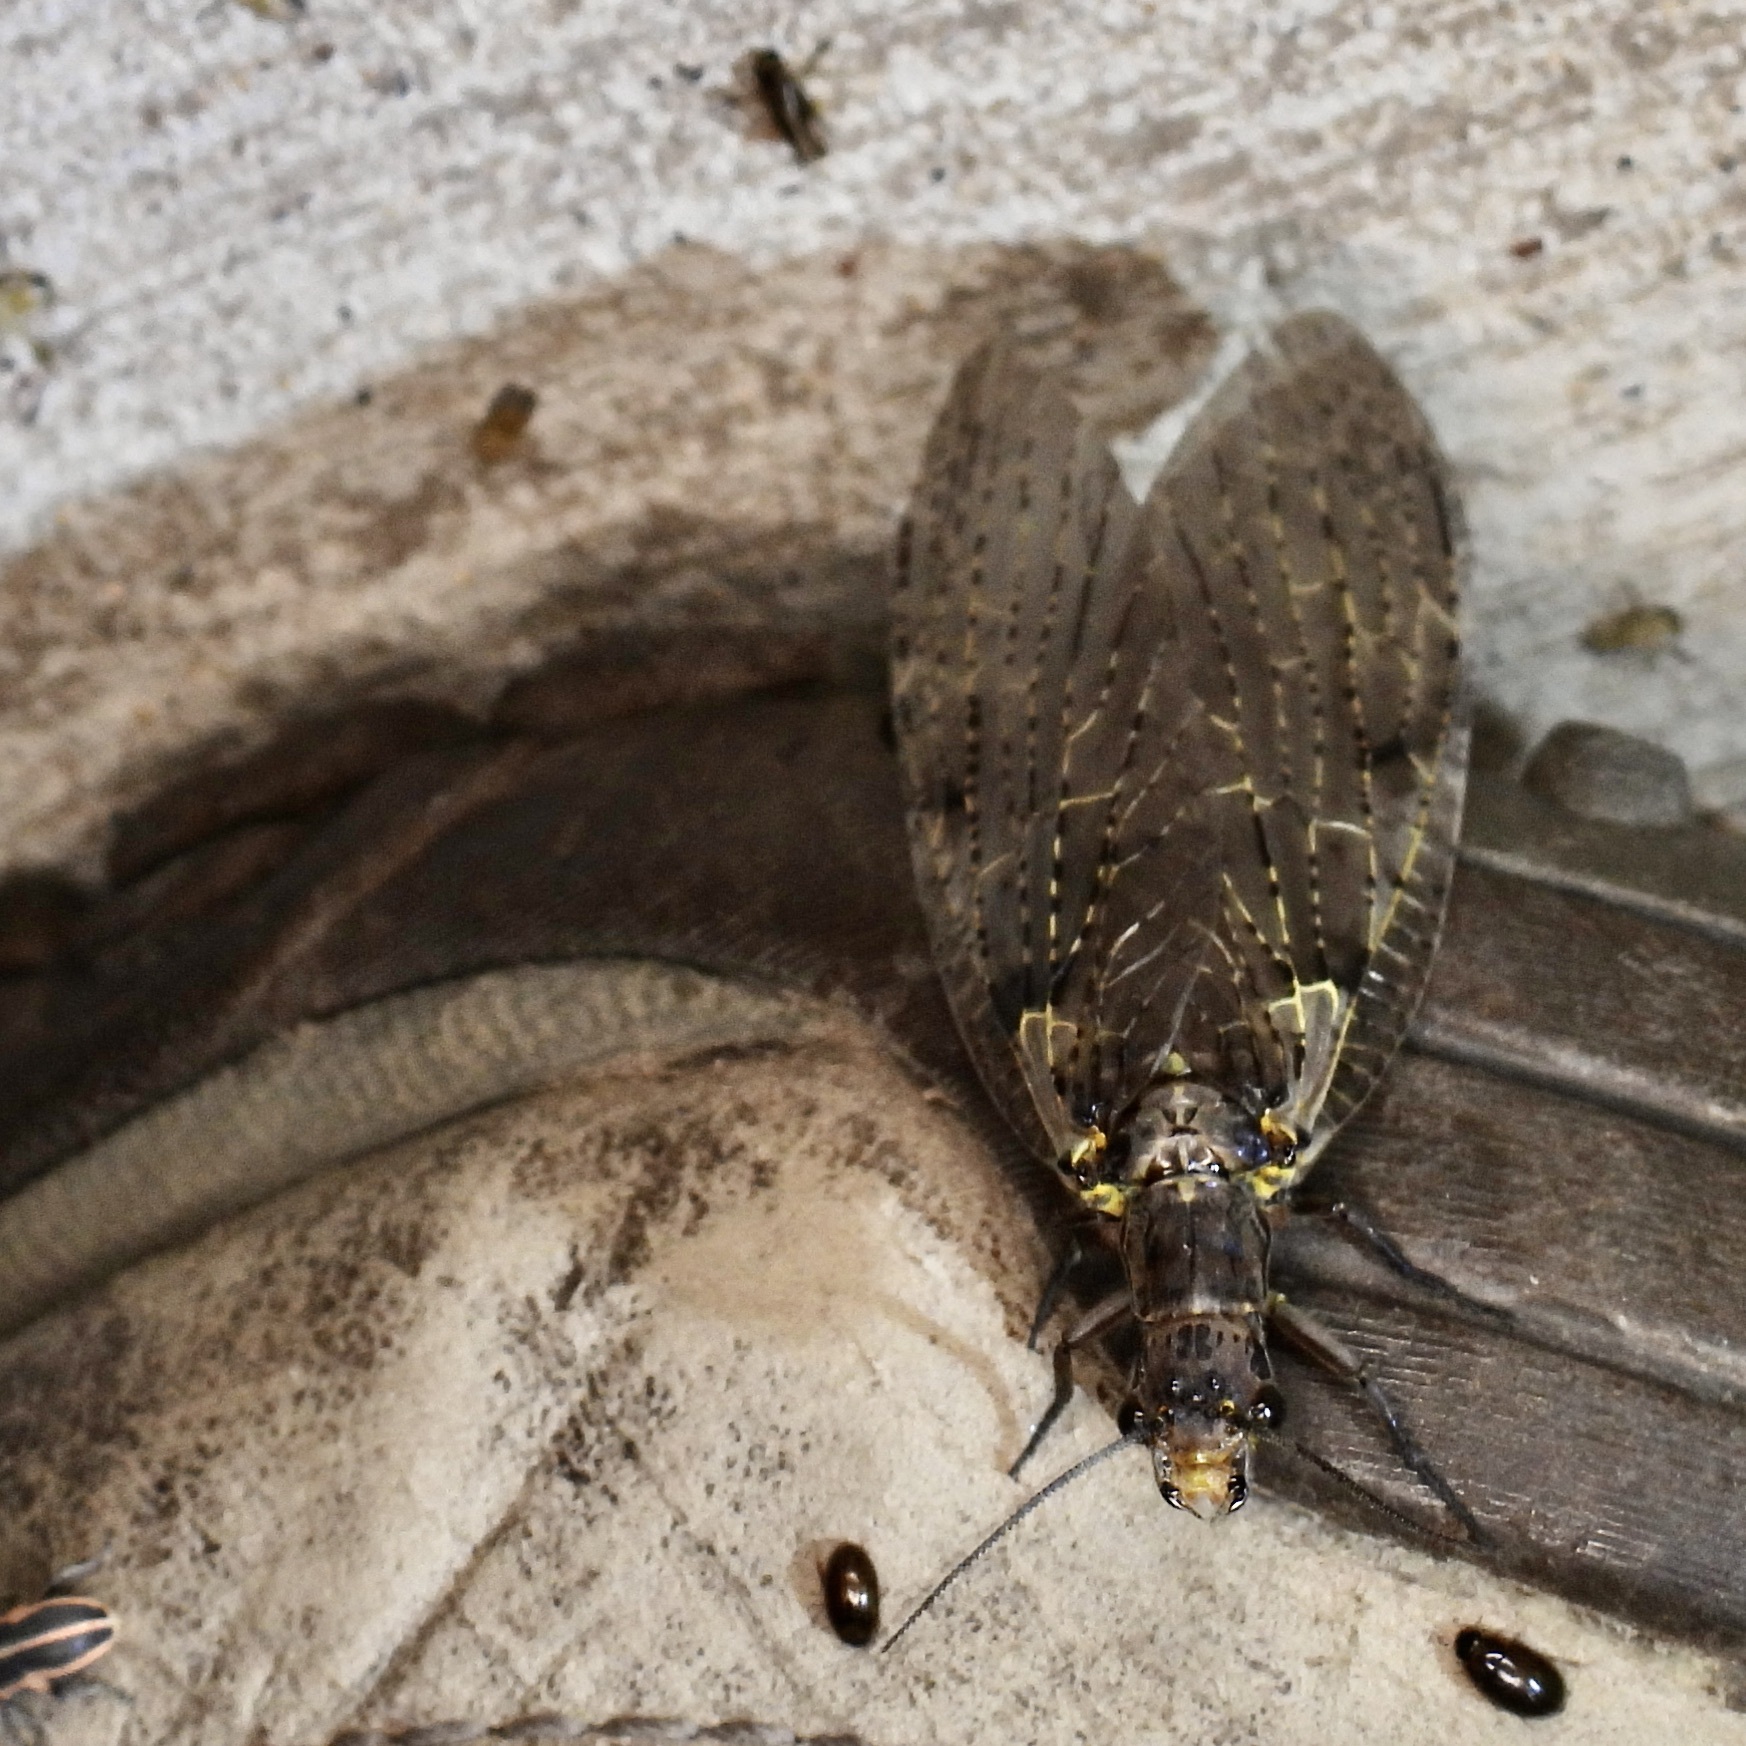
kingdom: Animalia
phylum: Arthropoda
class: Insecta
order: Megaloptera
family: Corydalidae
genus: Chauliodes
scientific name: Chauliodes rastricornis
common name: Spring fishfly
